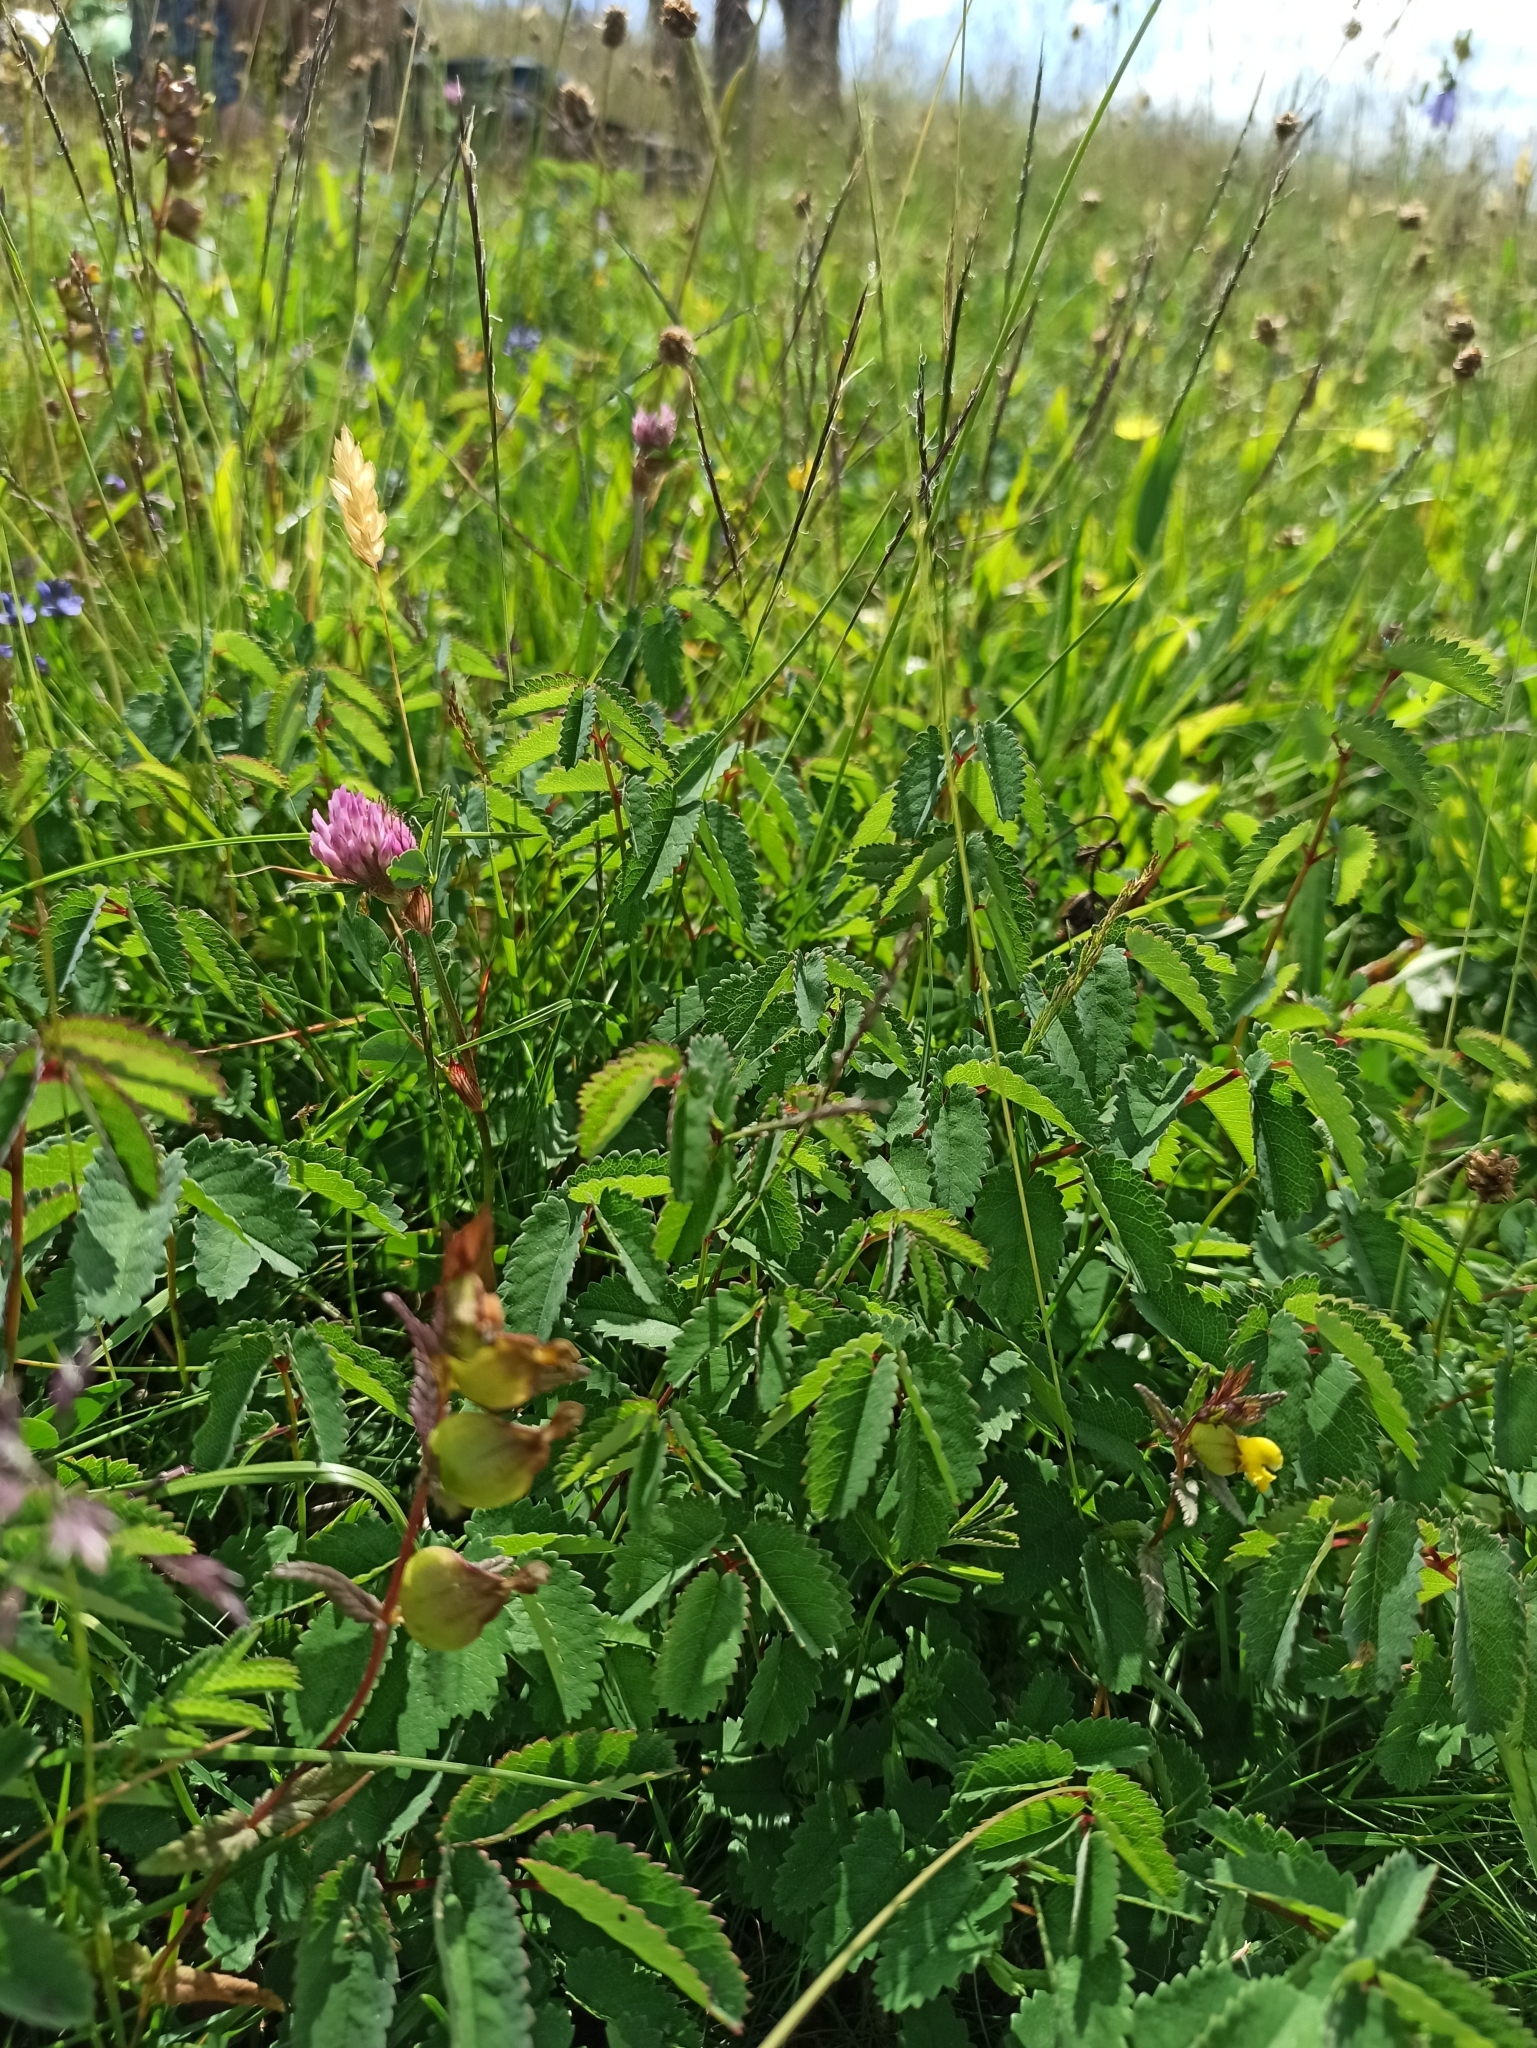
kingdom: Plantae
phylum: Tracheophyta
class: Magnoliopsida
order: Rosales
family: Rosaceae
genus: Sanguisorba
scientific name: Sanguisorba officinalis
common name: Great burnet
